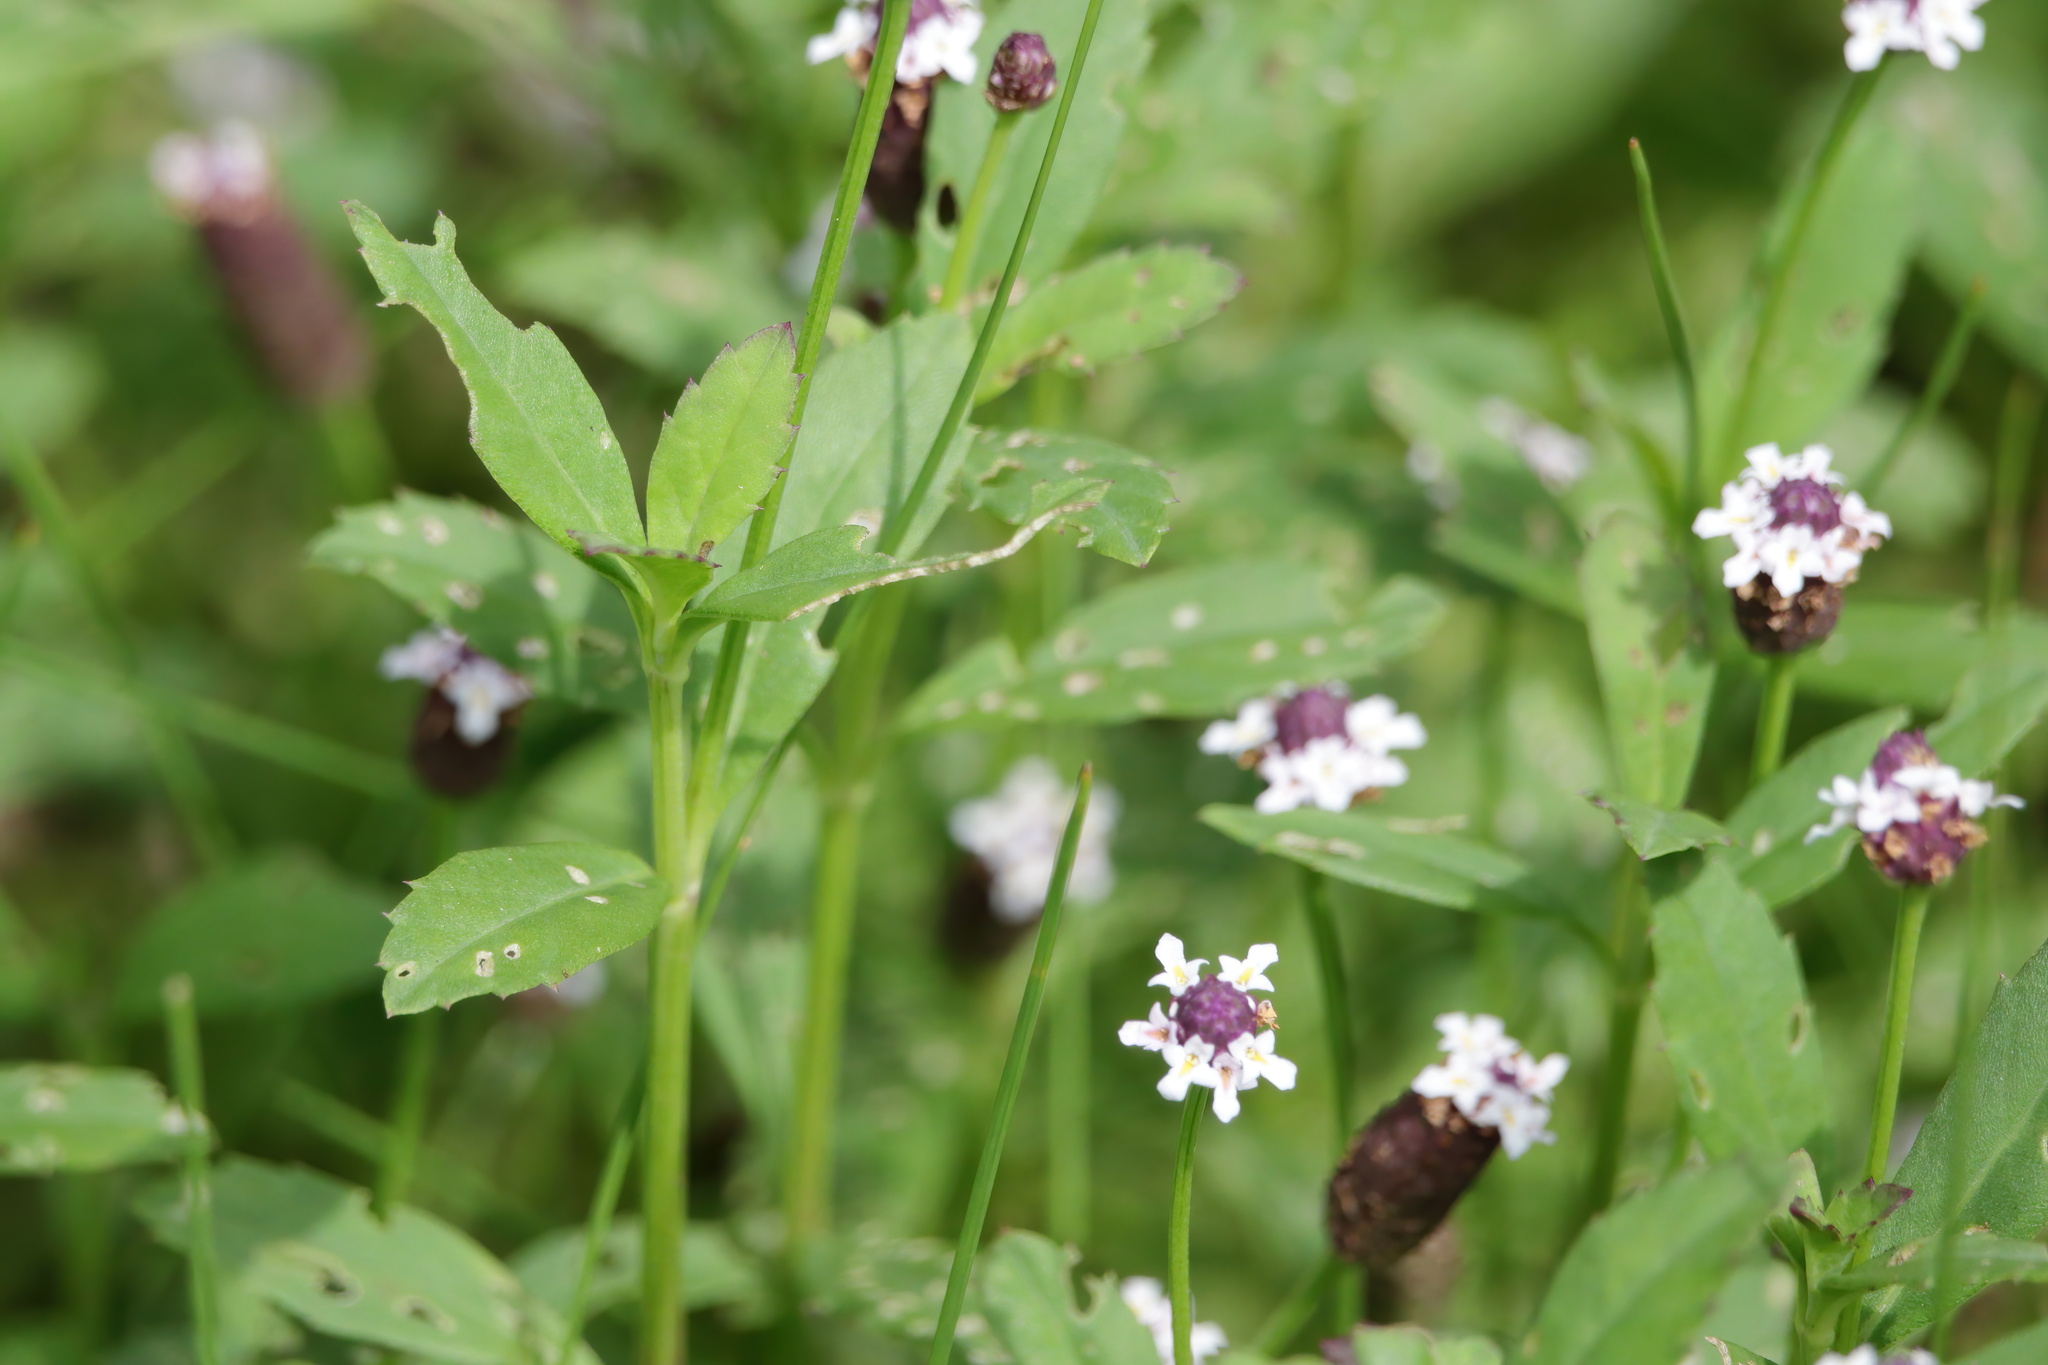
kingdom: Plantae
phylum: Tracheophyta
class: Magnoliopsida
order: Lamiales
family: Verbenaceae
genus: Phyla
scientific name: Phyla nodiflora
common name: Frogfruit
